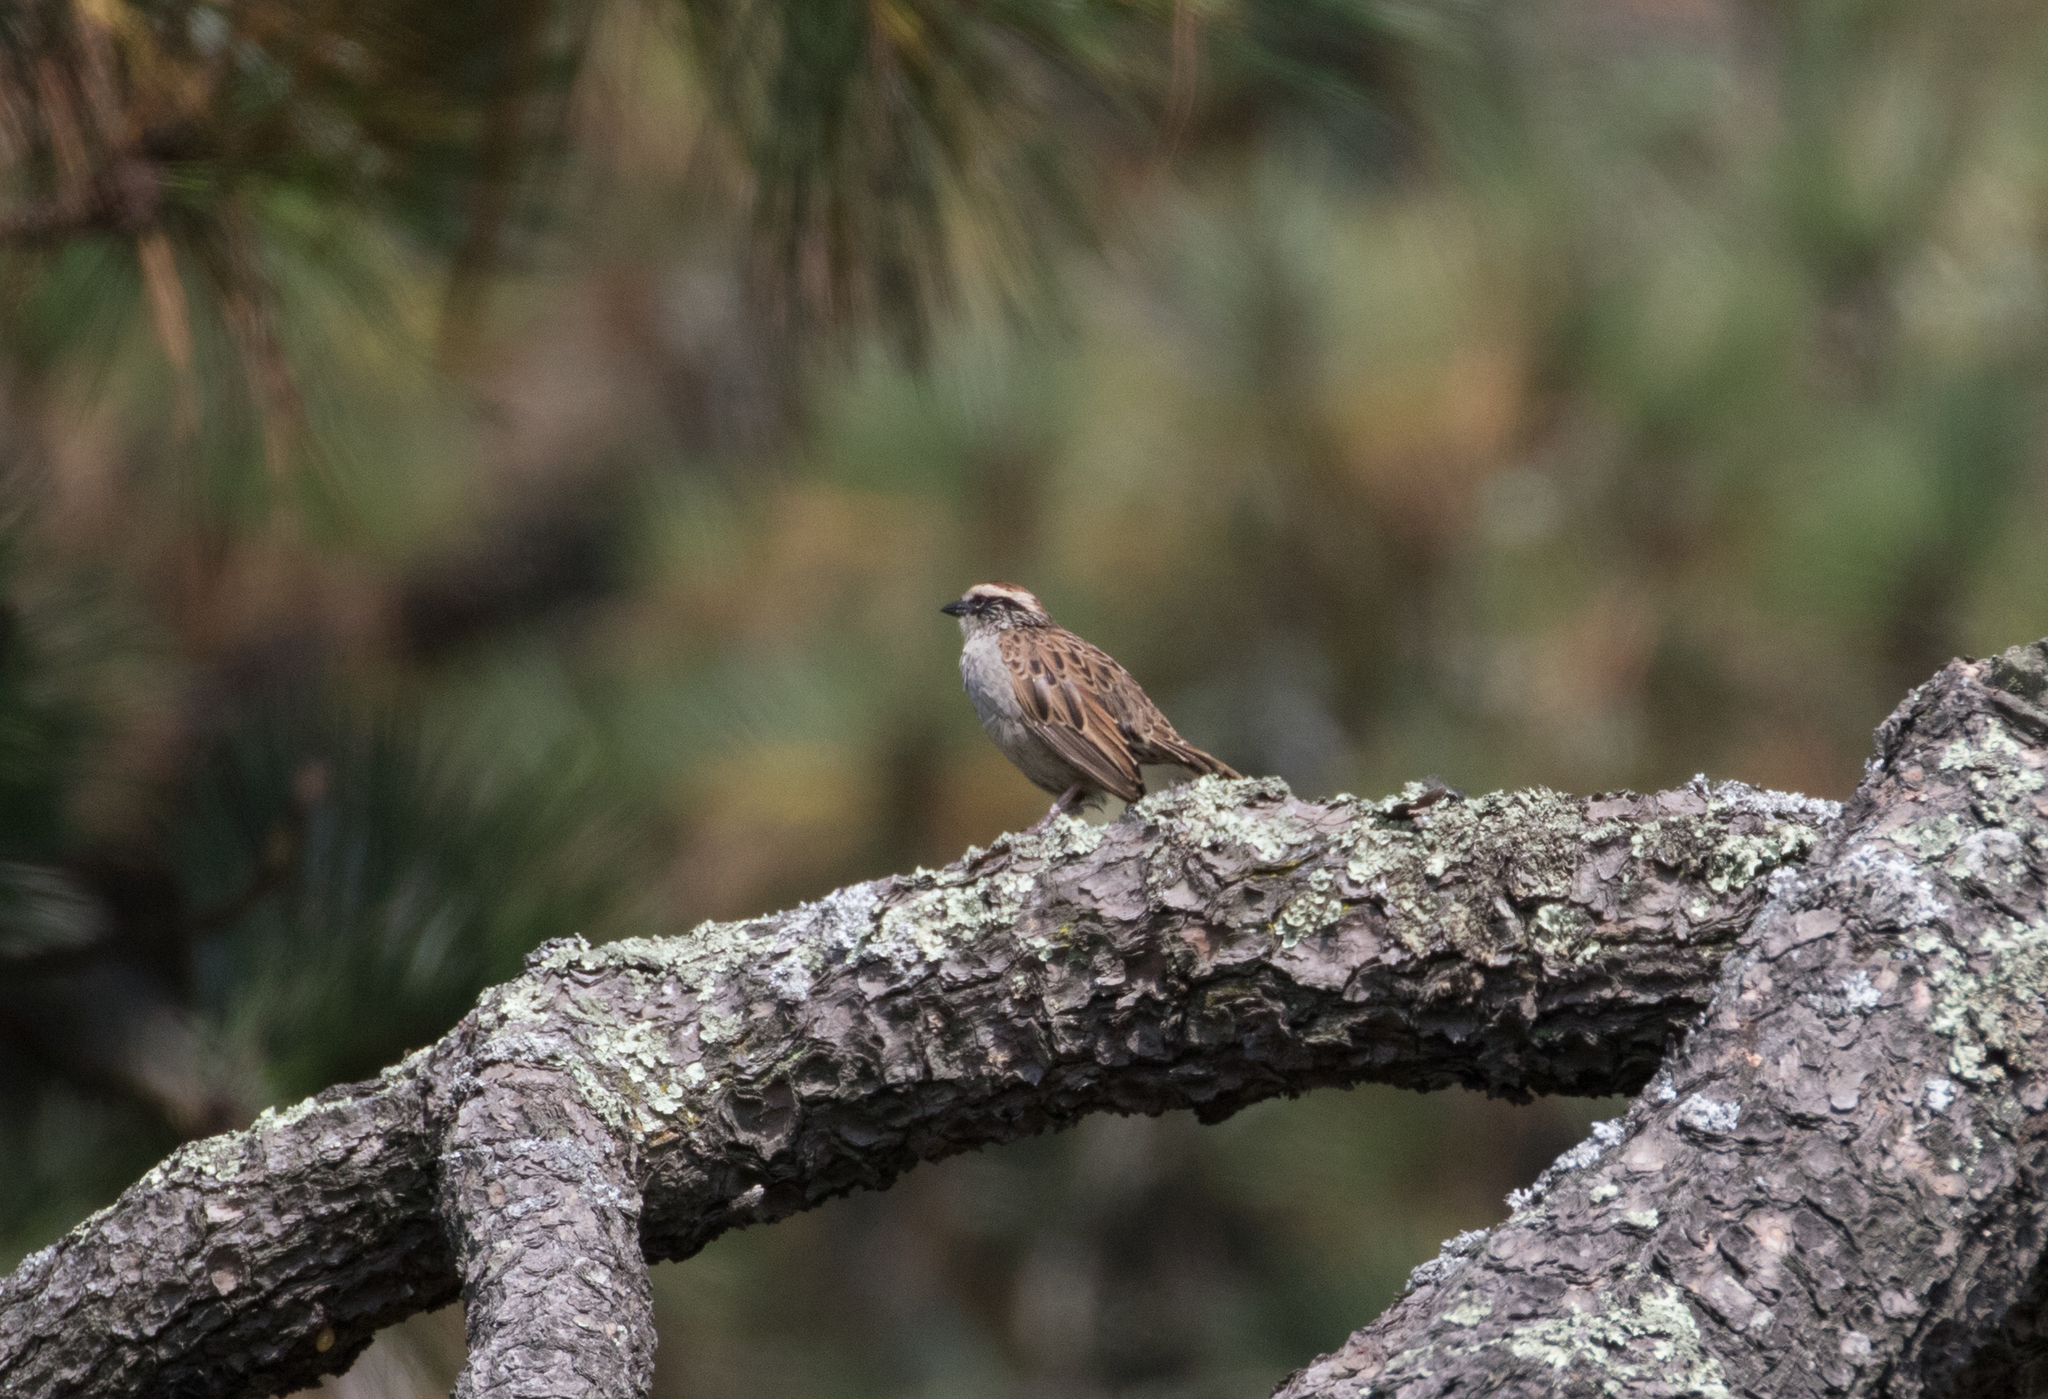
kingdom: Animalia
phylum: Chordata
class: Aves
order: Passeriformes
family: Passerellidae
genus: Oriturus
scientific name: Oriturus superciliosus
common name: Striped sparrow
